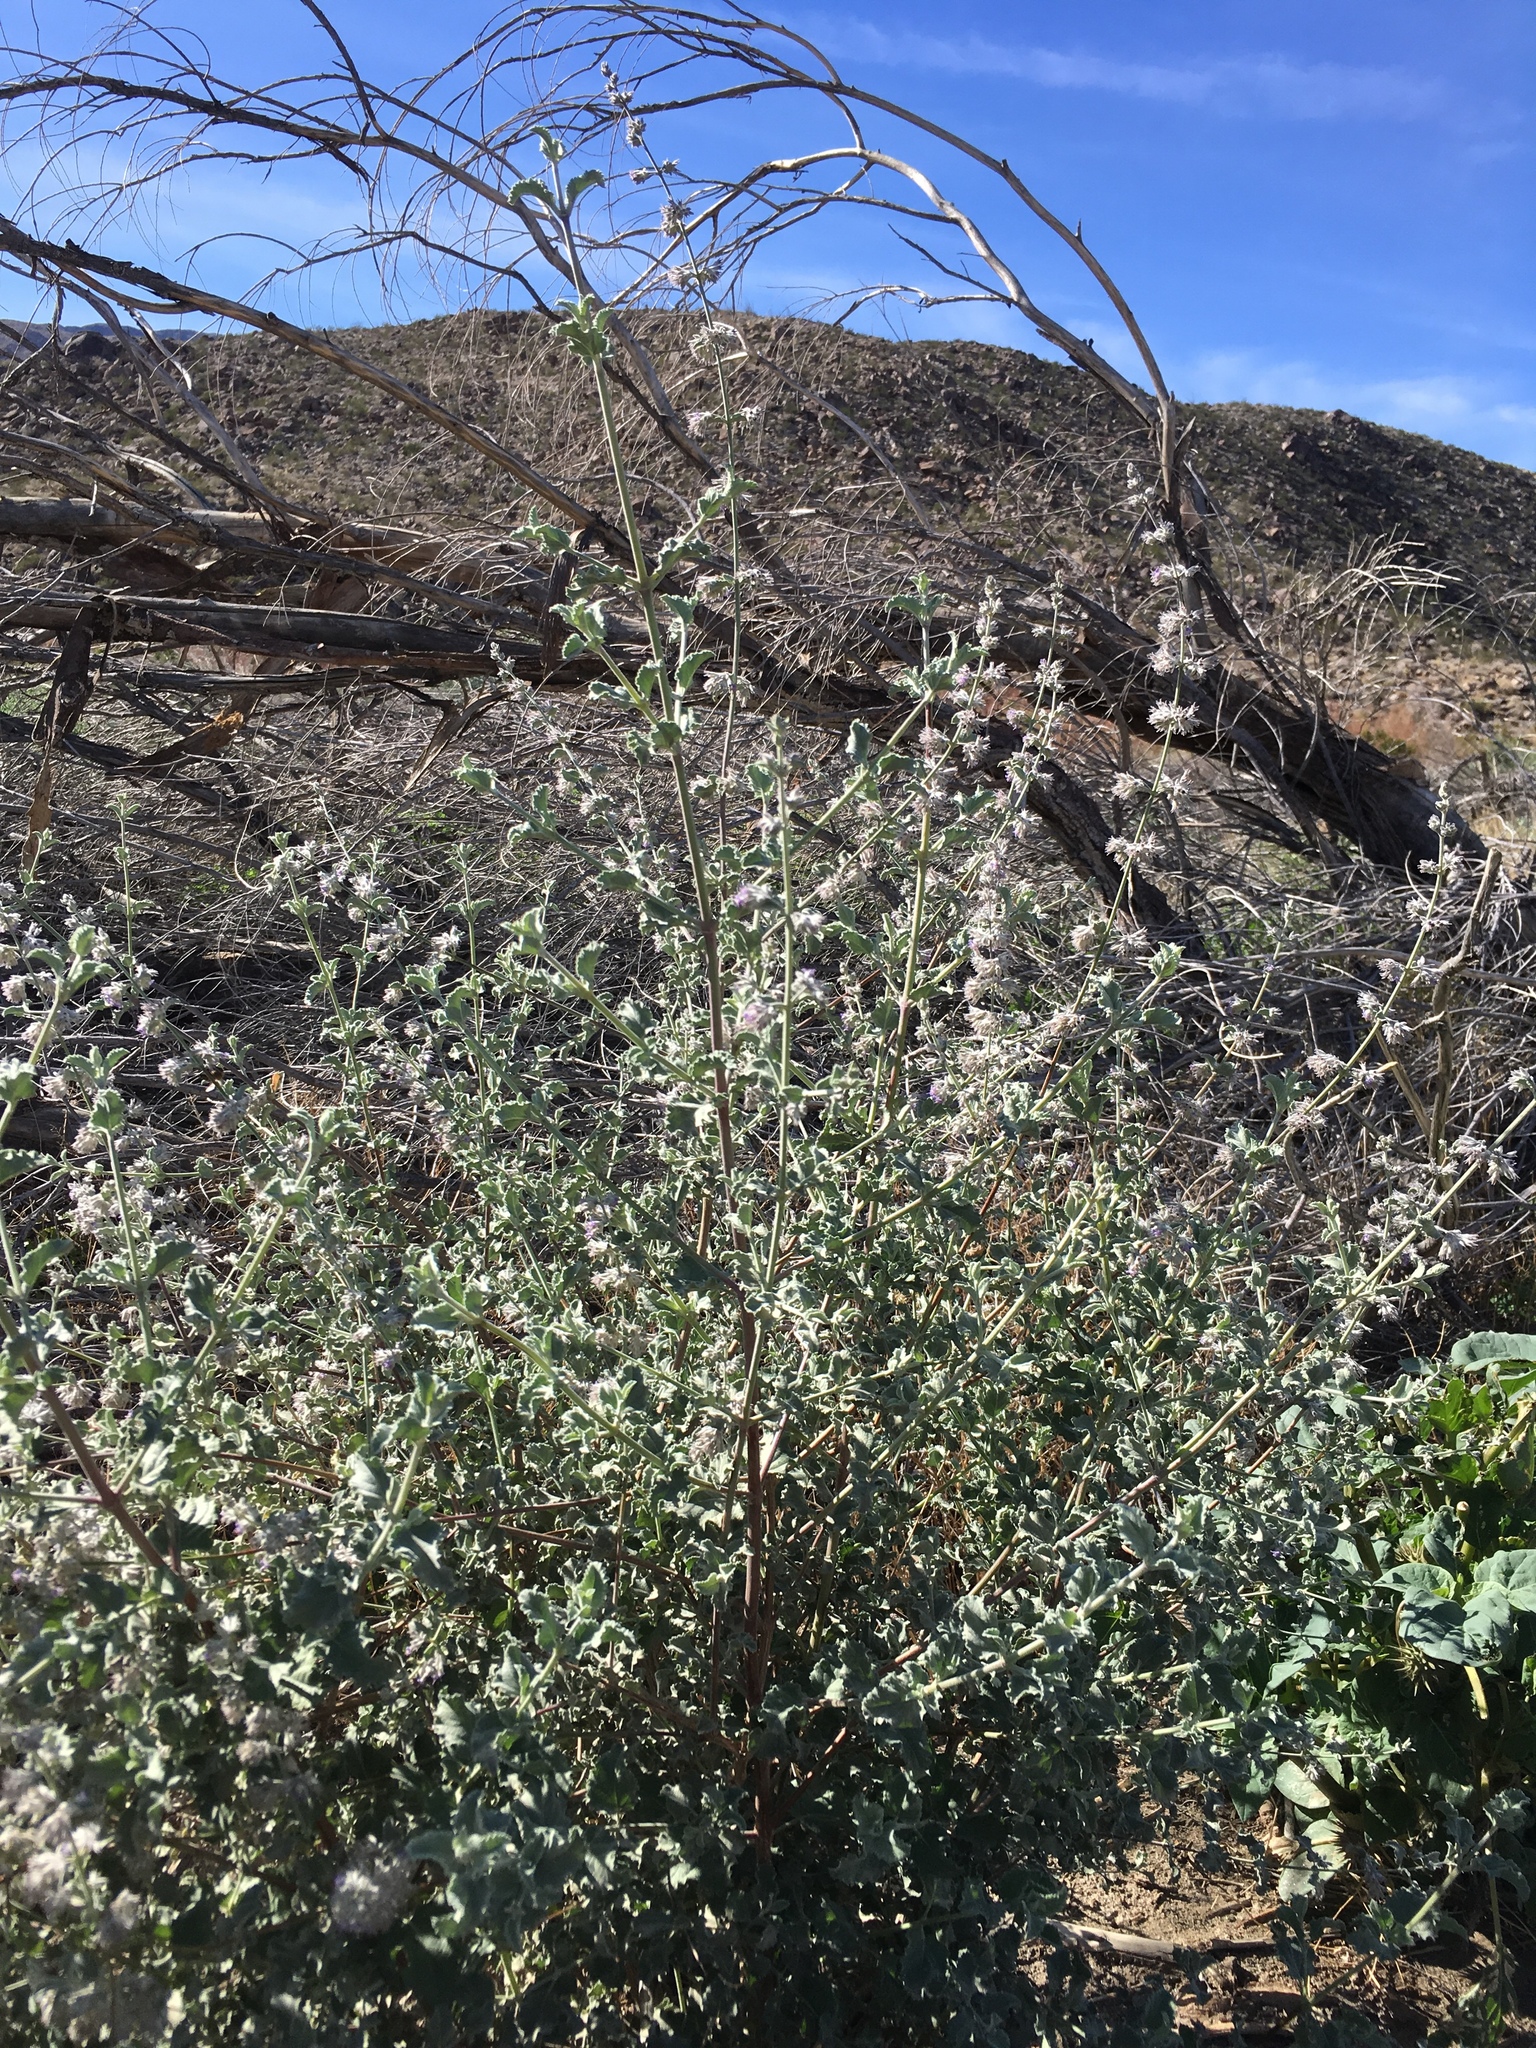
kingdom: Plantae
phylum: Tracheophyta
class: Magnoliopsida
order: Lamiales
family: Lamiaceae
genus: Condea
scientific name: Condea emoryi
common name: Chia
